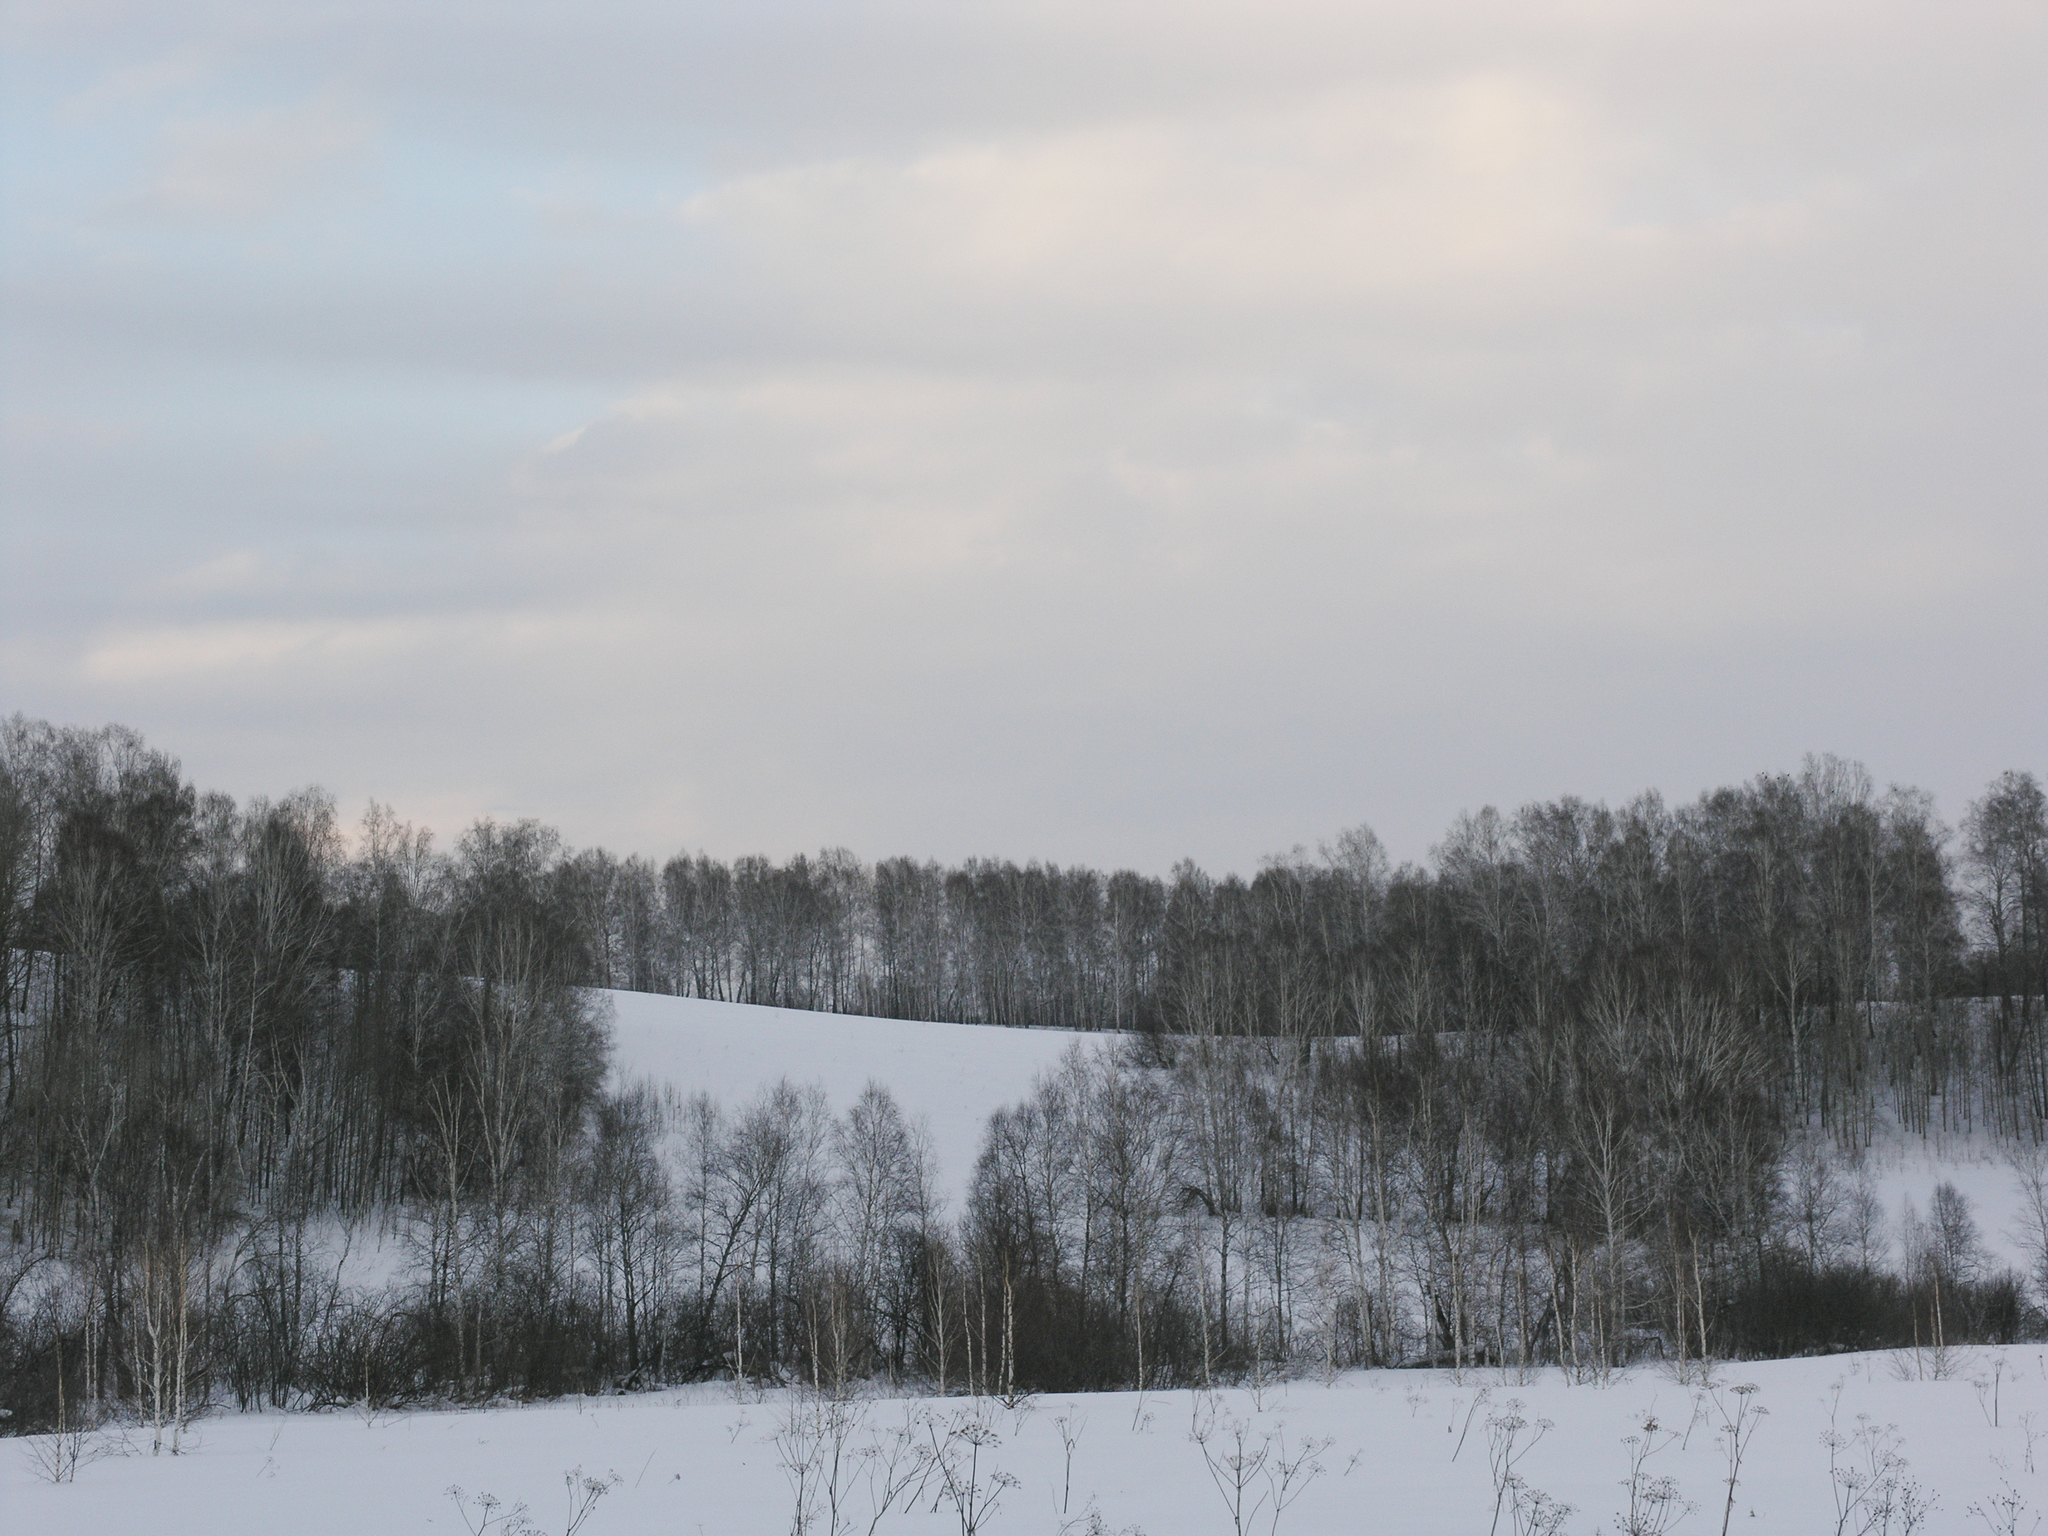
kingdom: Plantae
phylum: Tracheophyta
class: Magnoliopsida
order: Fagales
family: Betulaceae
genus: Betula
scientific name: Betula pendula
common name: Silver birch
